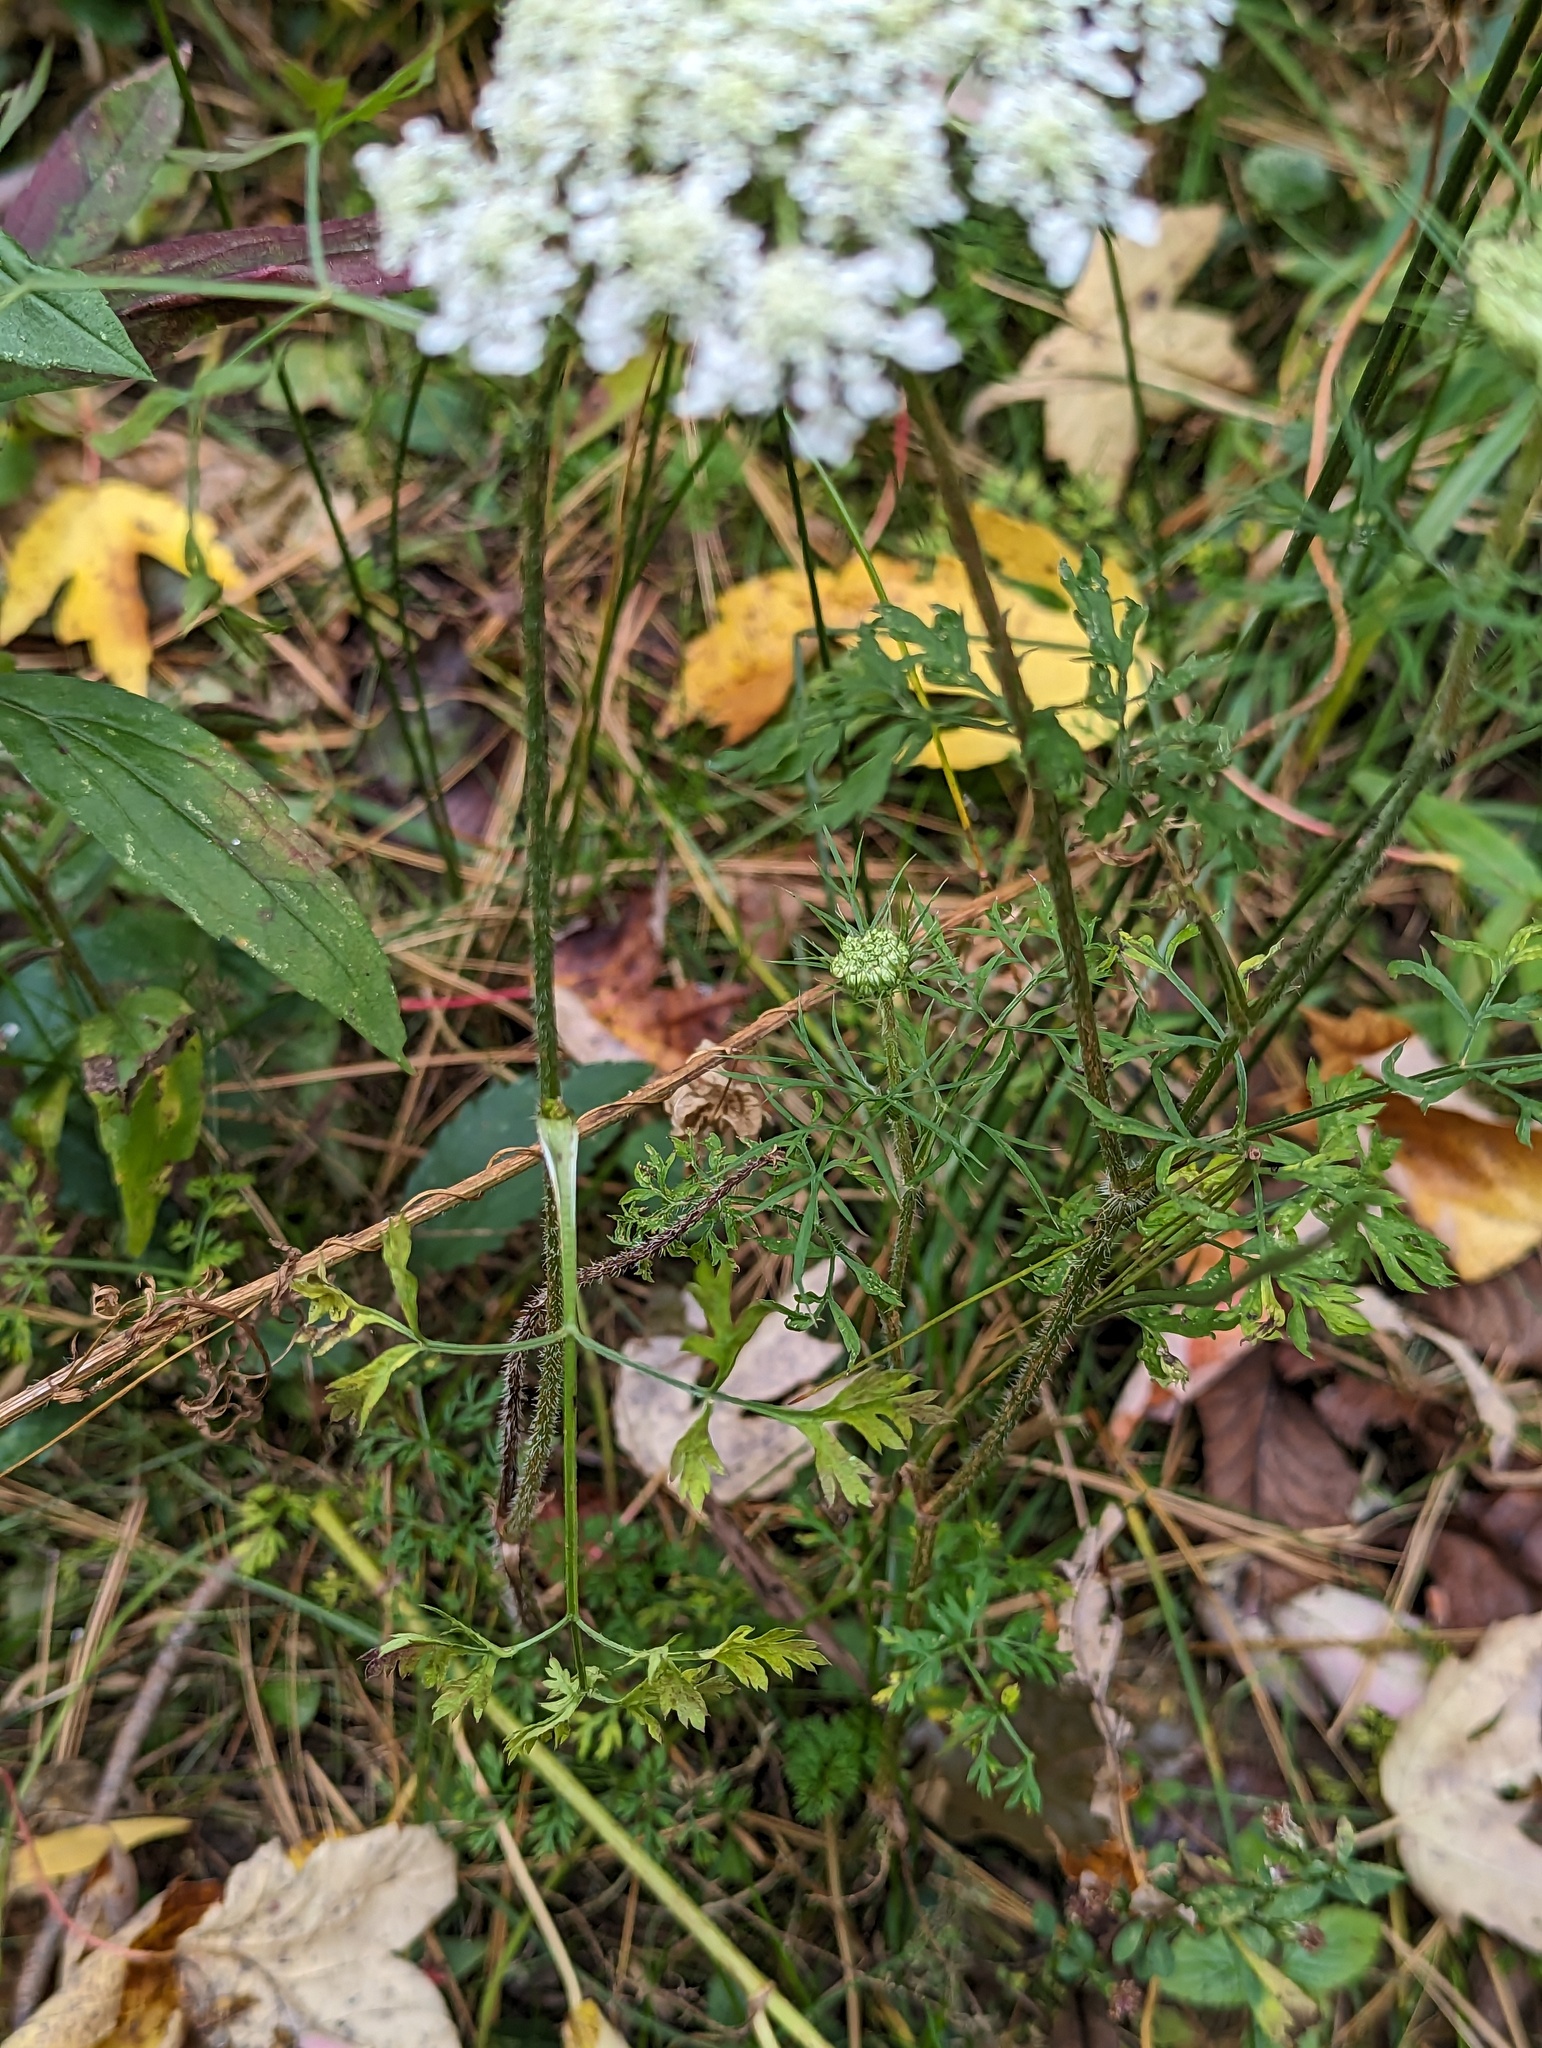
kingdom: Plantae
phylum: Tracheophyta
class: Magnoliopsida
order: Apiales
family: Apiaceae
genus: Daucus
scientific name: Daucus carota
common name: Wild carrot
